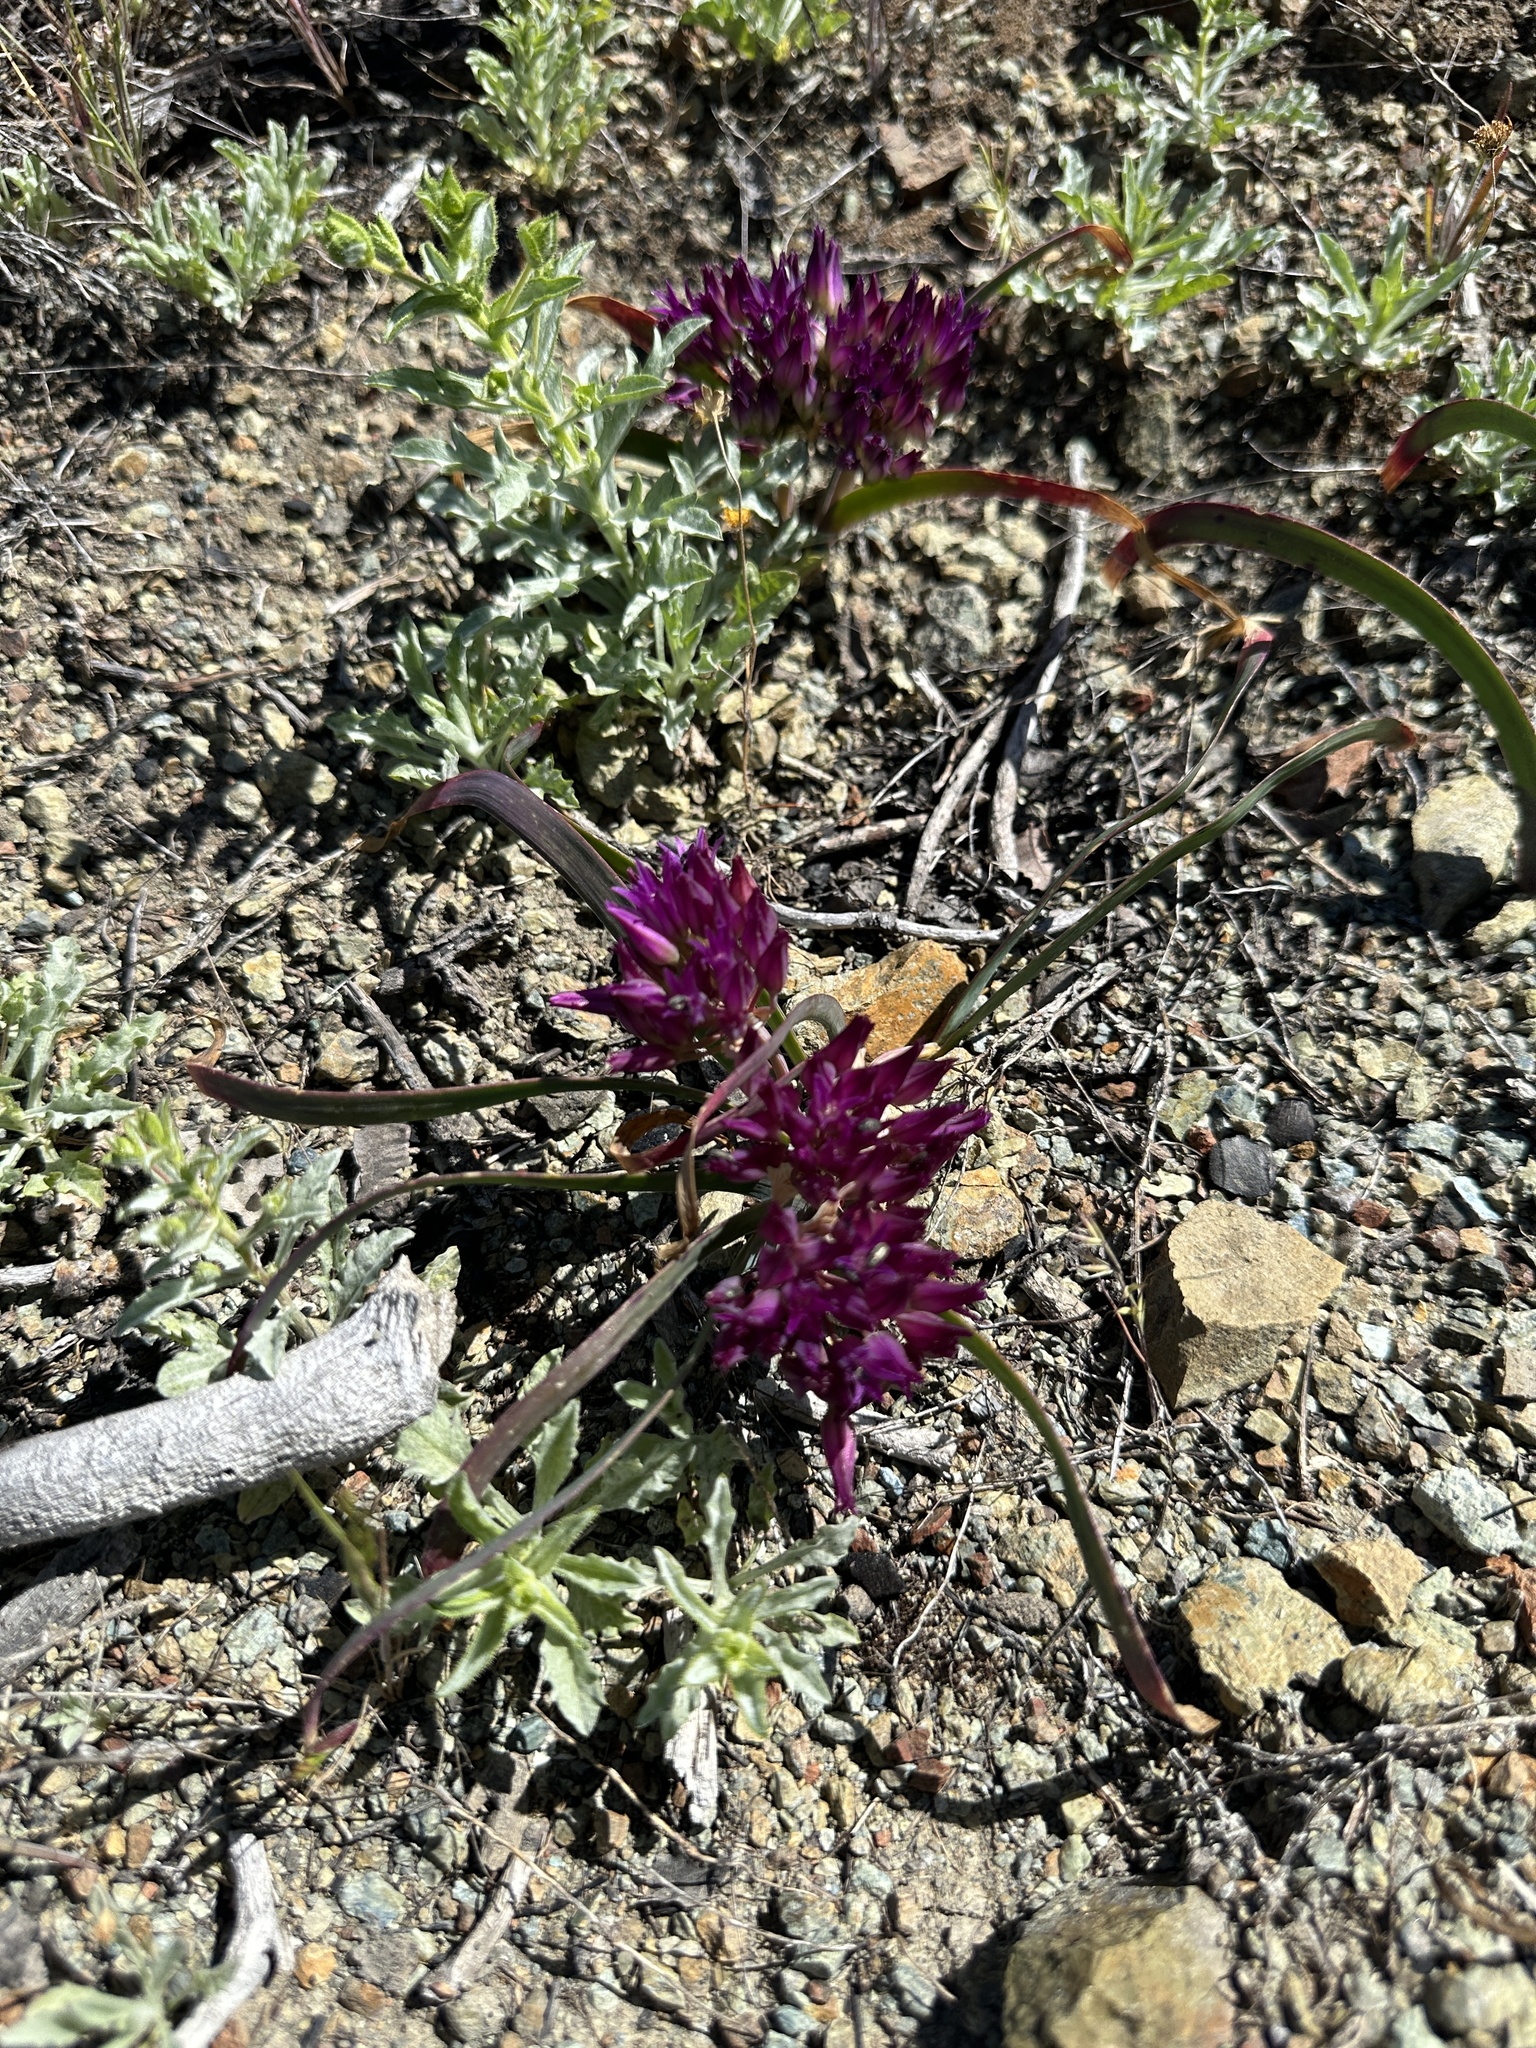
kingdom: Plantae
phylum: Tracheophyta
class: Liliopsida
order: Asparagales
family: Amaryllidaceae
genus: Allium
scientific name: Allium falcifolium
